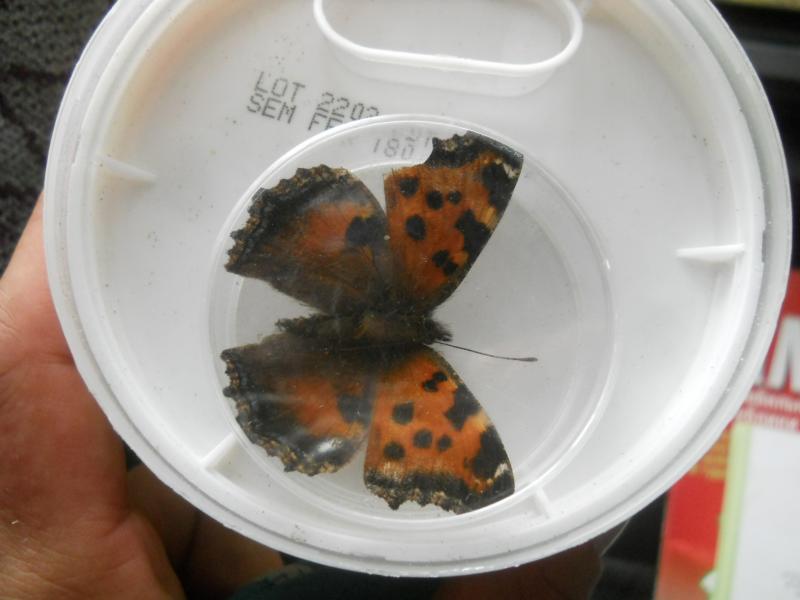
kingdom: Animalia
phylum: Arthropoda
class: Insecta
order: Lepidoptera
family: Nymphalidae
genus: Nymphalis
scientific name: Nymphalis xanthomelas
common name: Scarce tortoiseshell
